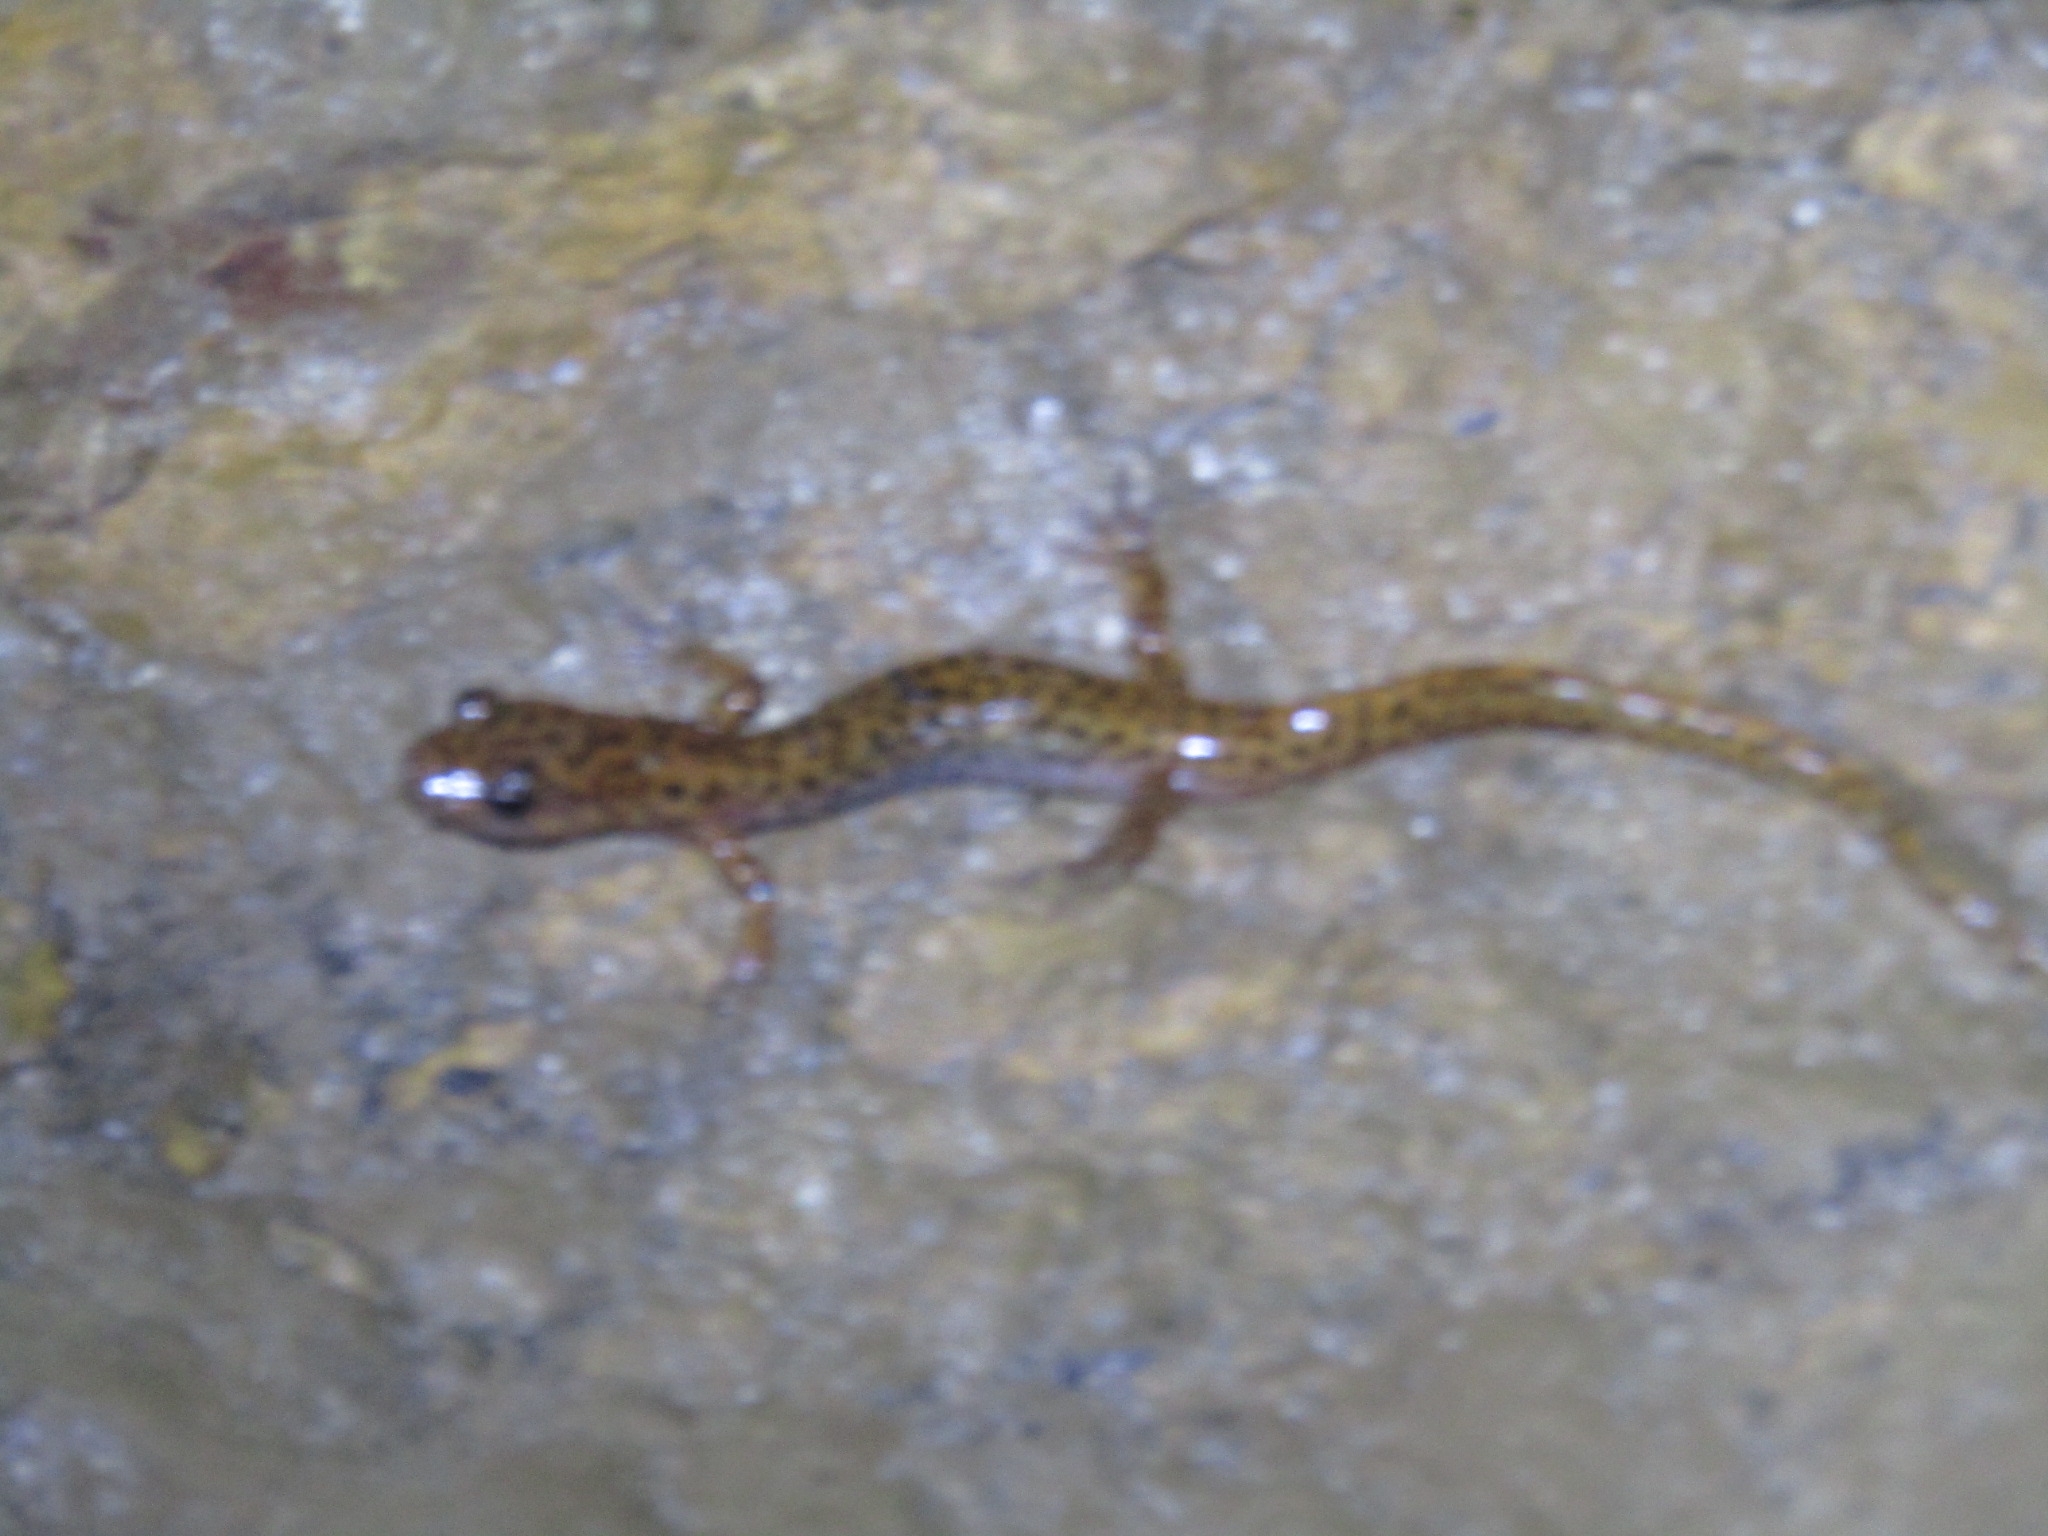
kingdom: Animalia
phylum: Chordata
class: Amphibia
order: Caudata
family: Plethodontidae
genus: Eurycea
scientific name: Eurycea lucifuga
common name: Cave salamander
